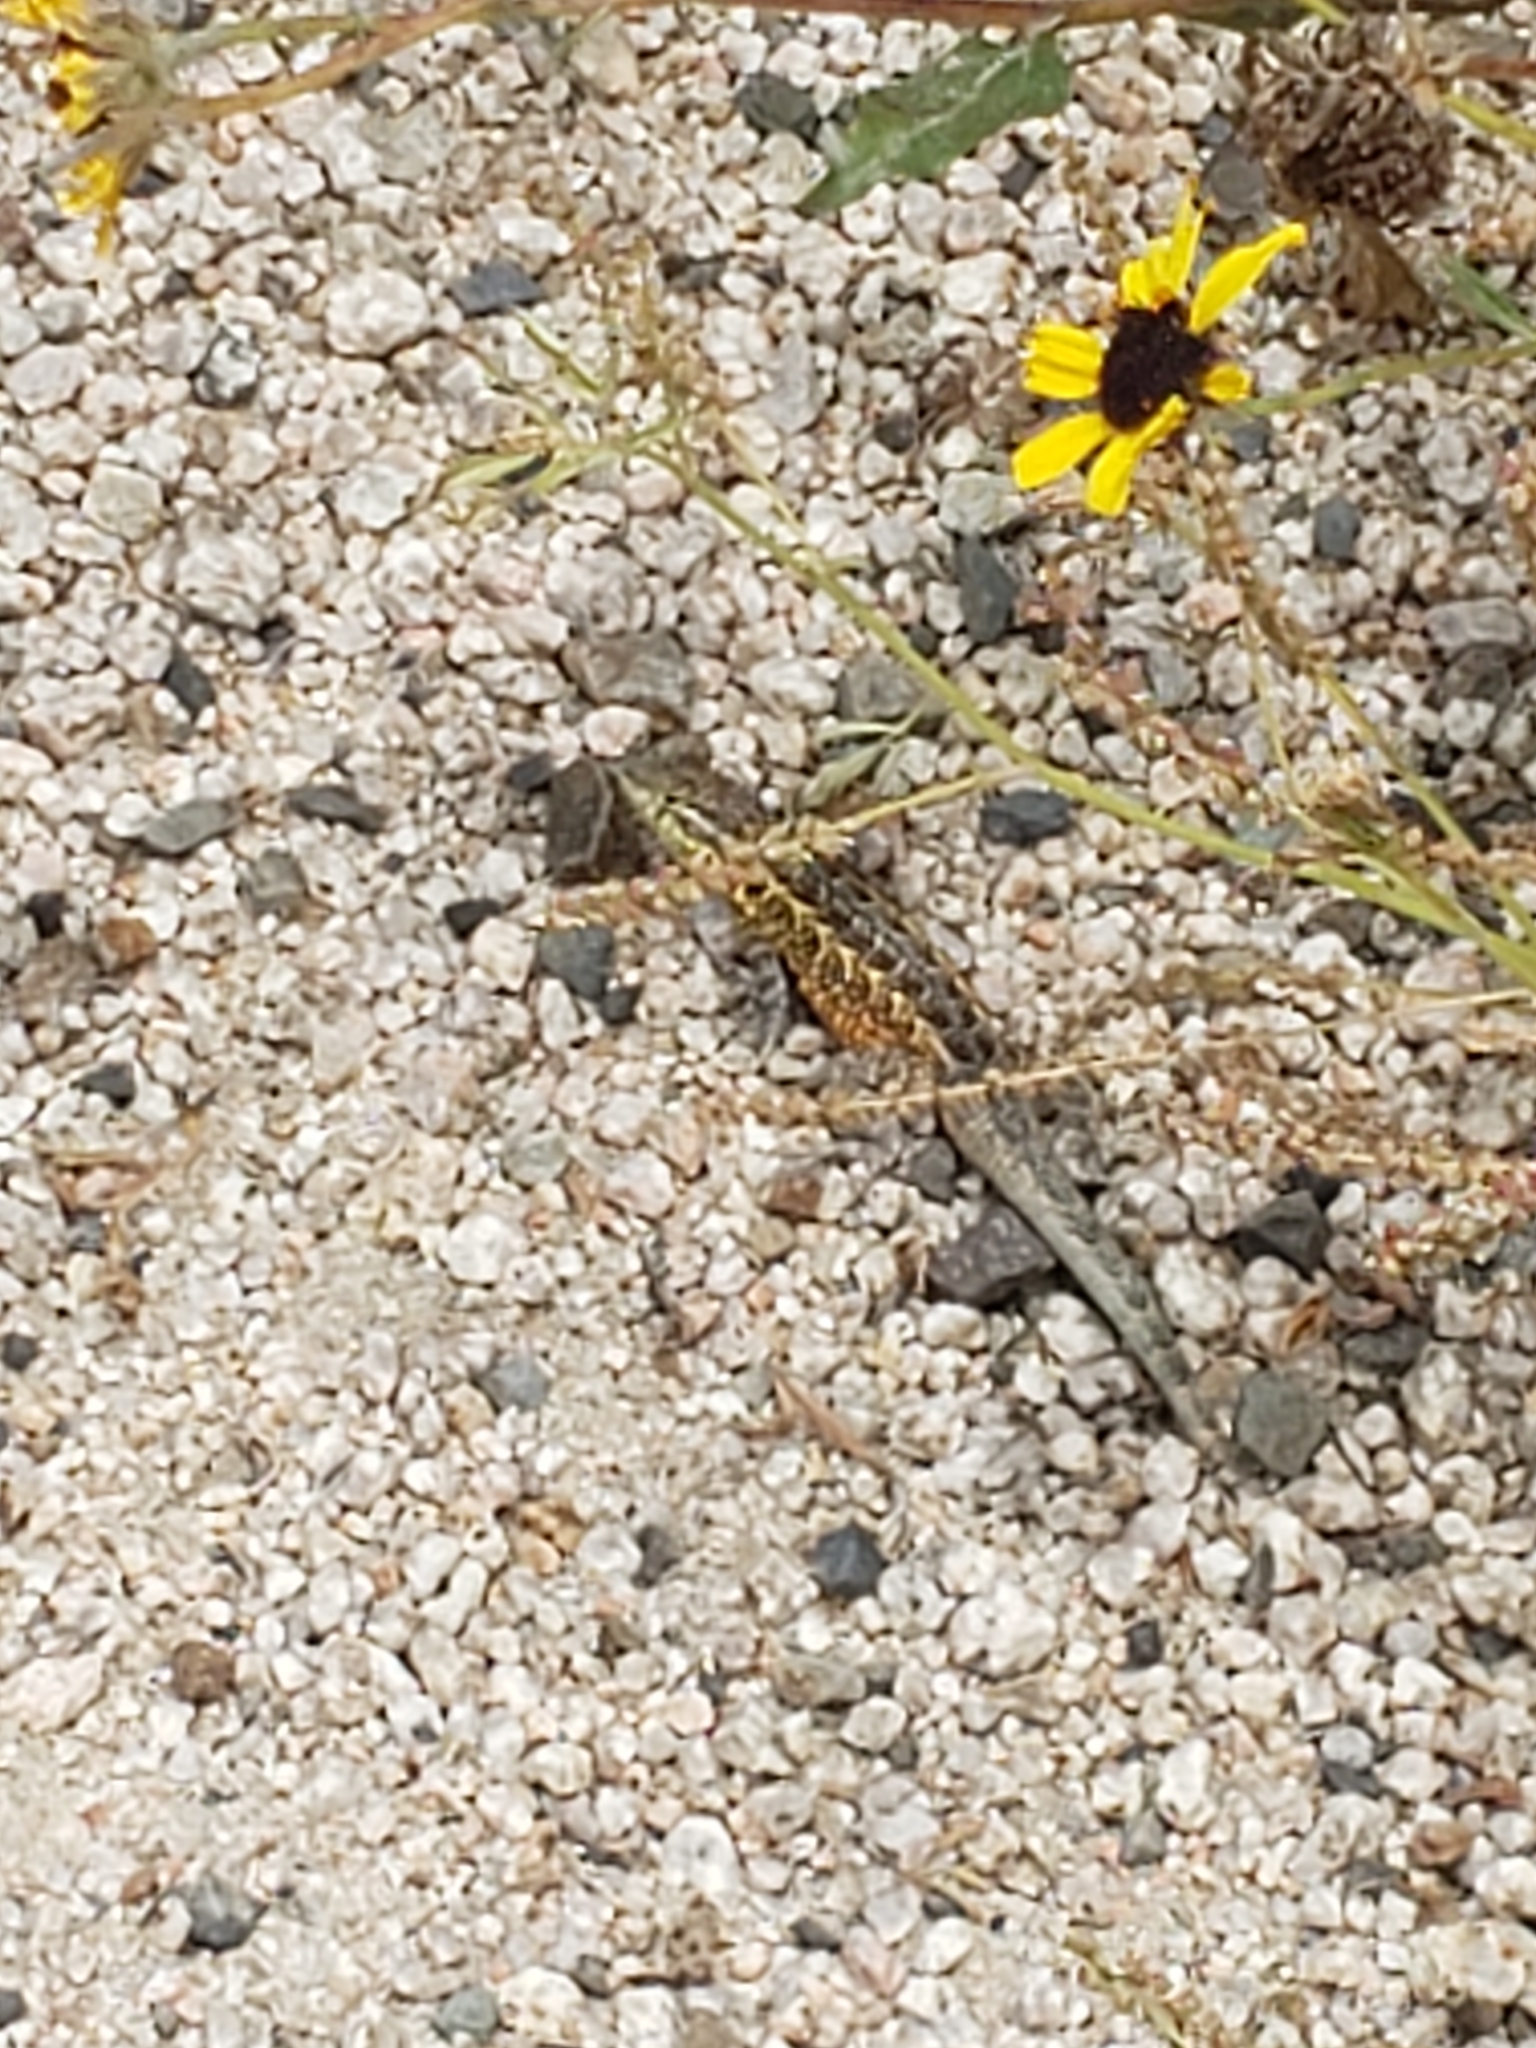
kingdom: Animalia
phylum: Chordata
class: Squamata
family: Phrynosomatidae
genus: Uta
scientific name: Uta stansburiana
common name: Side-blotched lizard
